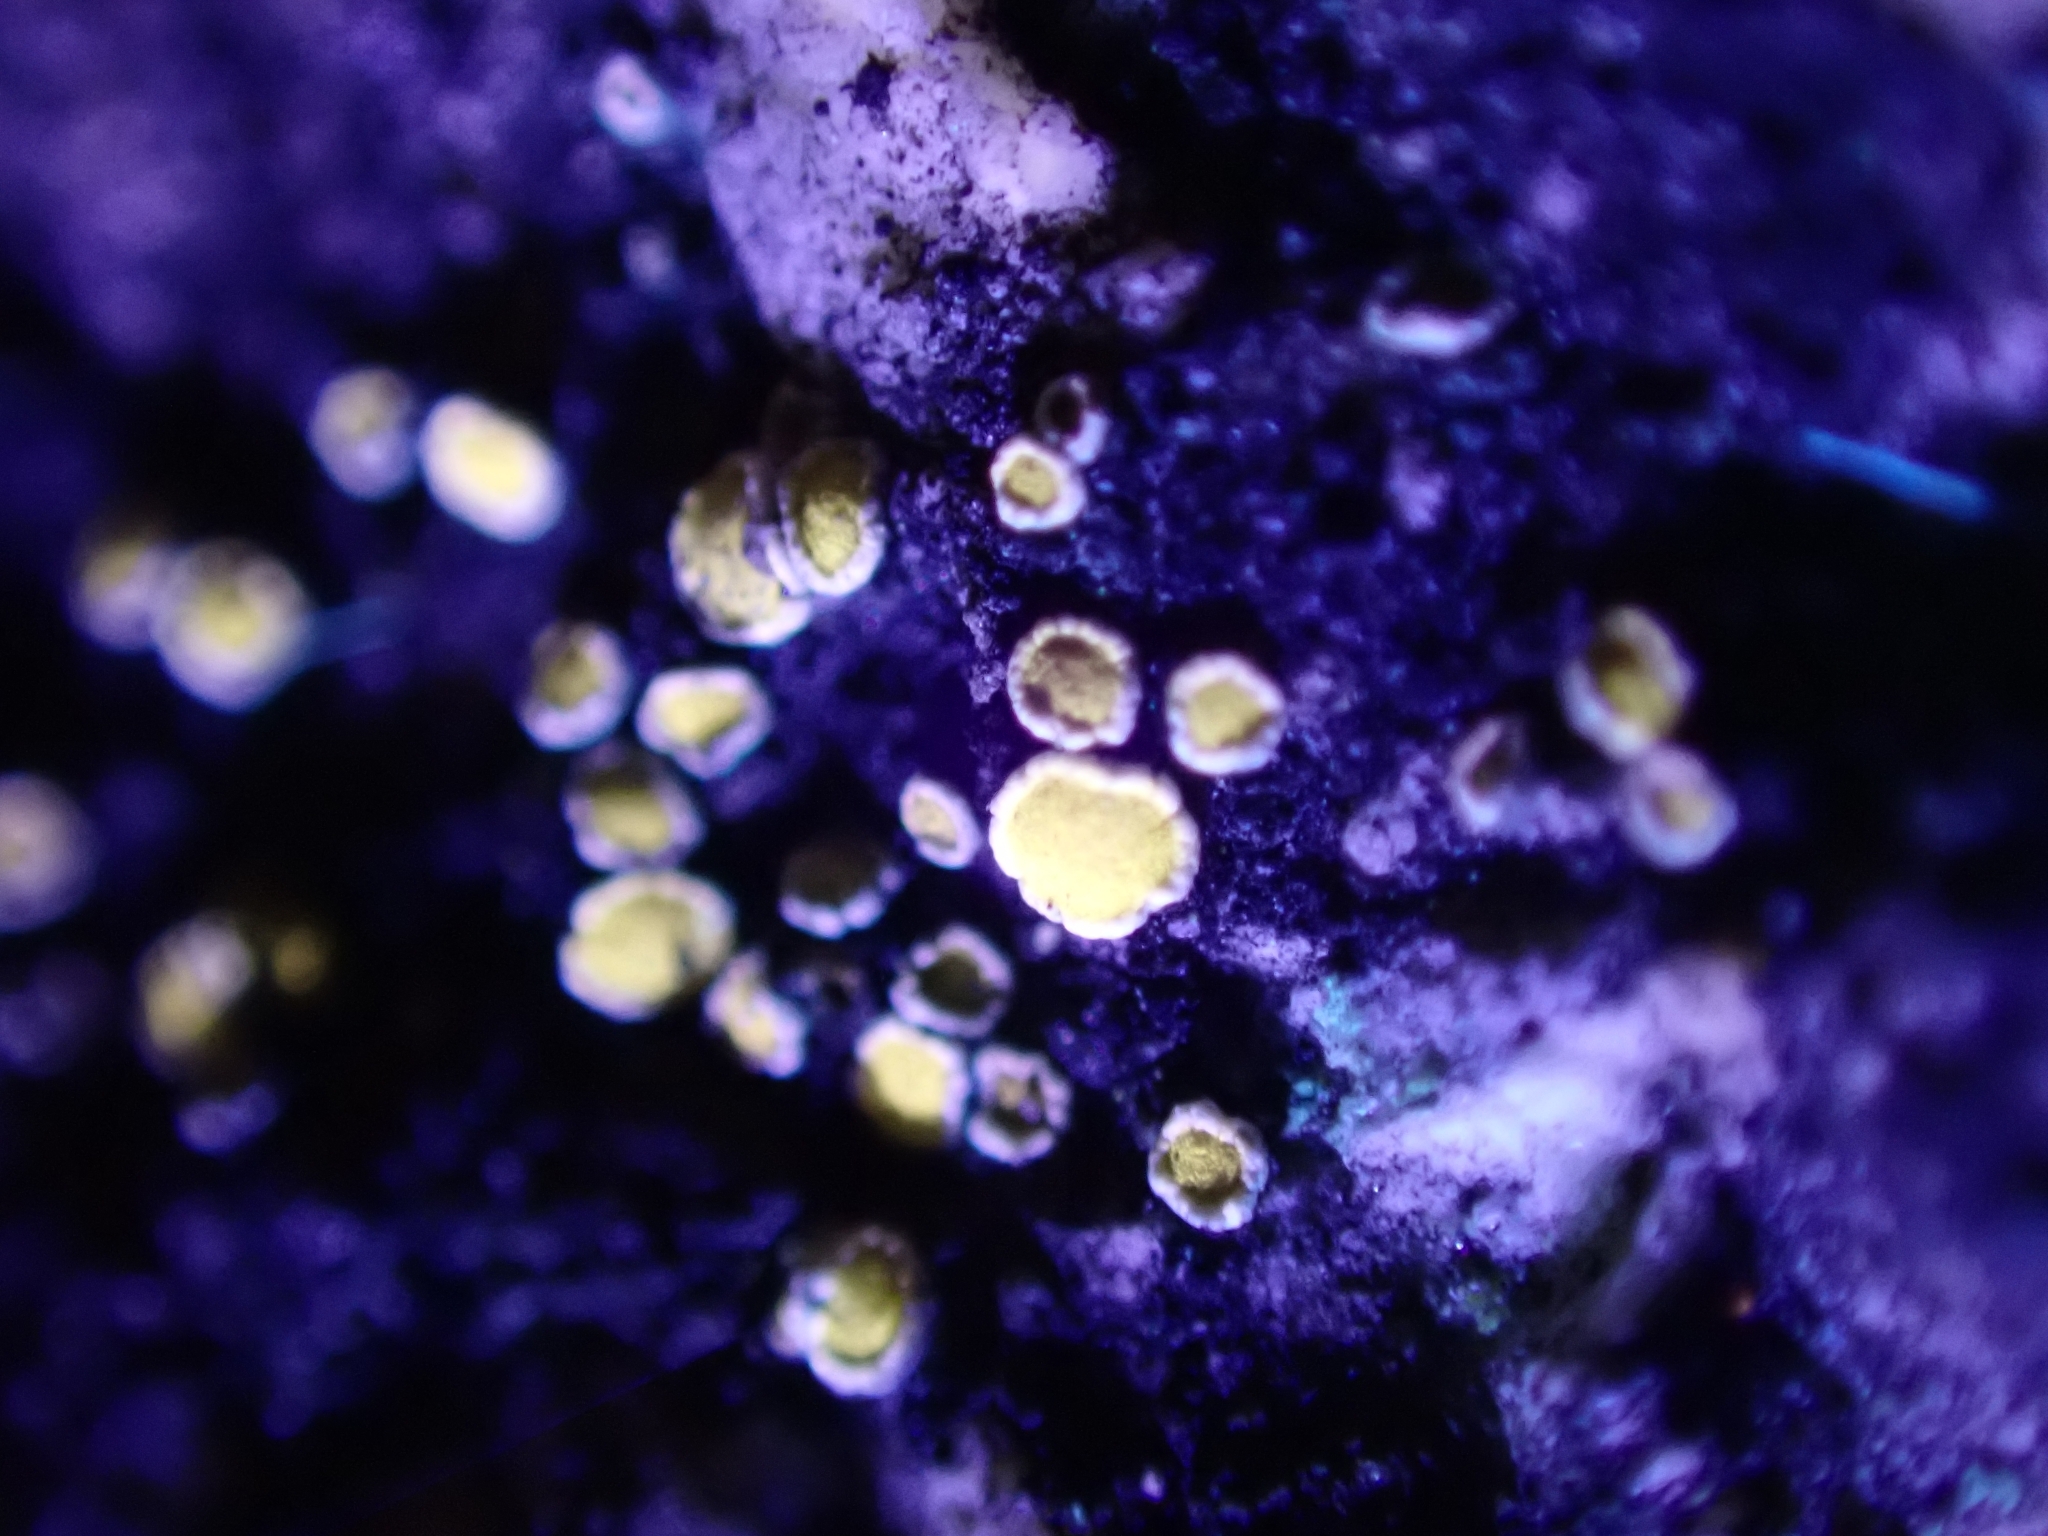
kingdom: Fungi
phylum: Ascomycota
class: Lecanoromycetes
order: Lecanorales
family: Lecanoraceae
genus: Polyozosia
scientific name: Polyozosia semipallida
